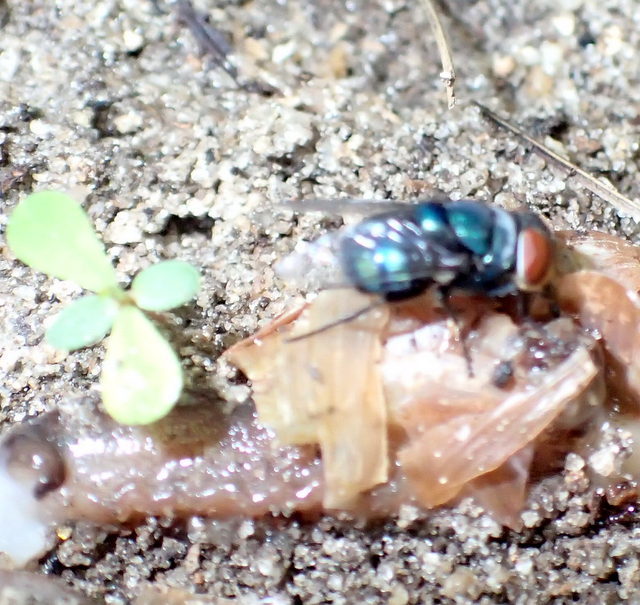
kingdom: Animalia
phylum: Arthropoda
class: Insecta
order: Diptera
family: Calliphoridae
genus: Chrysomya
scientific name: Chrysomya megacephala
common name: Blow fly
